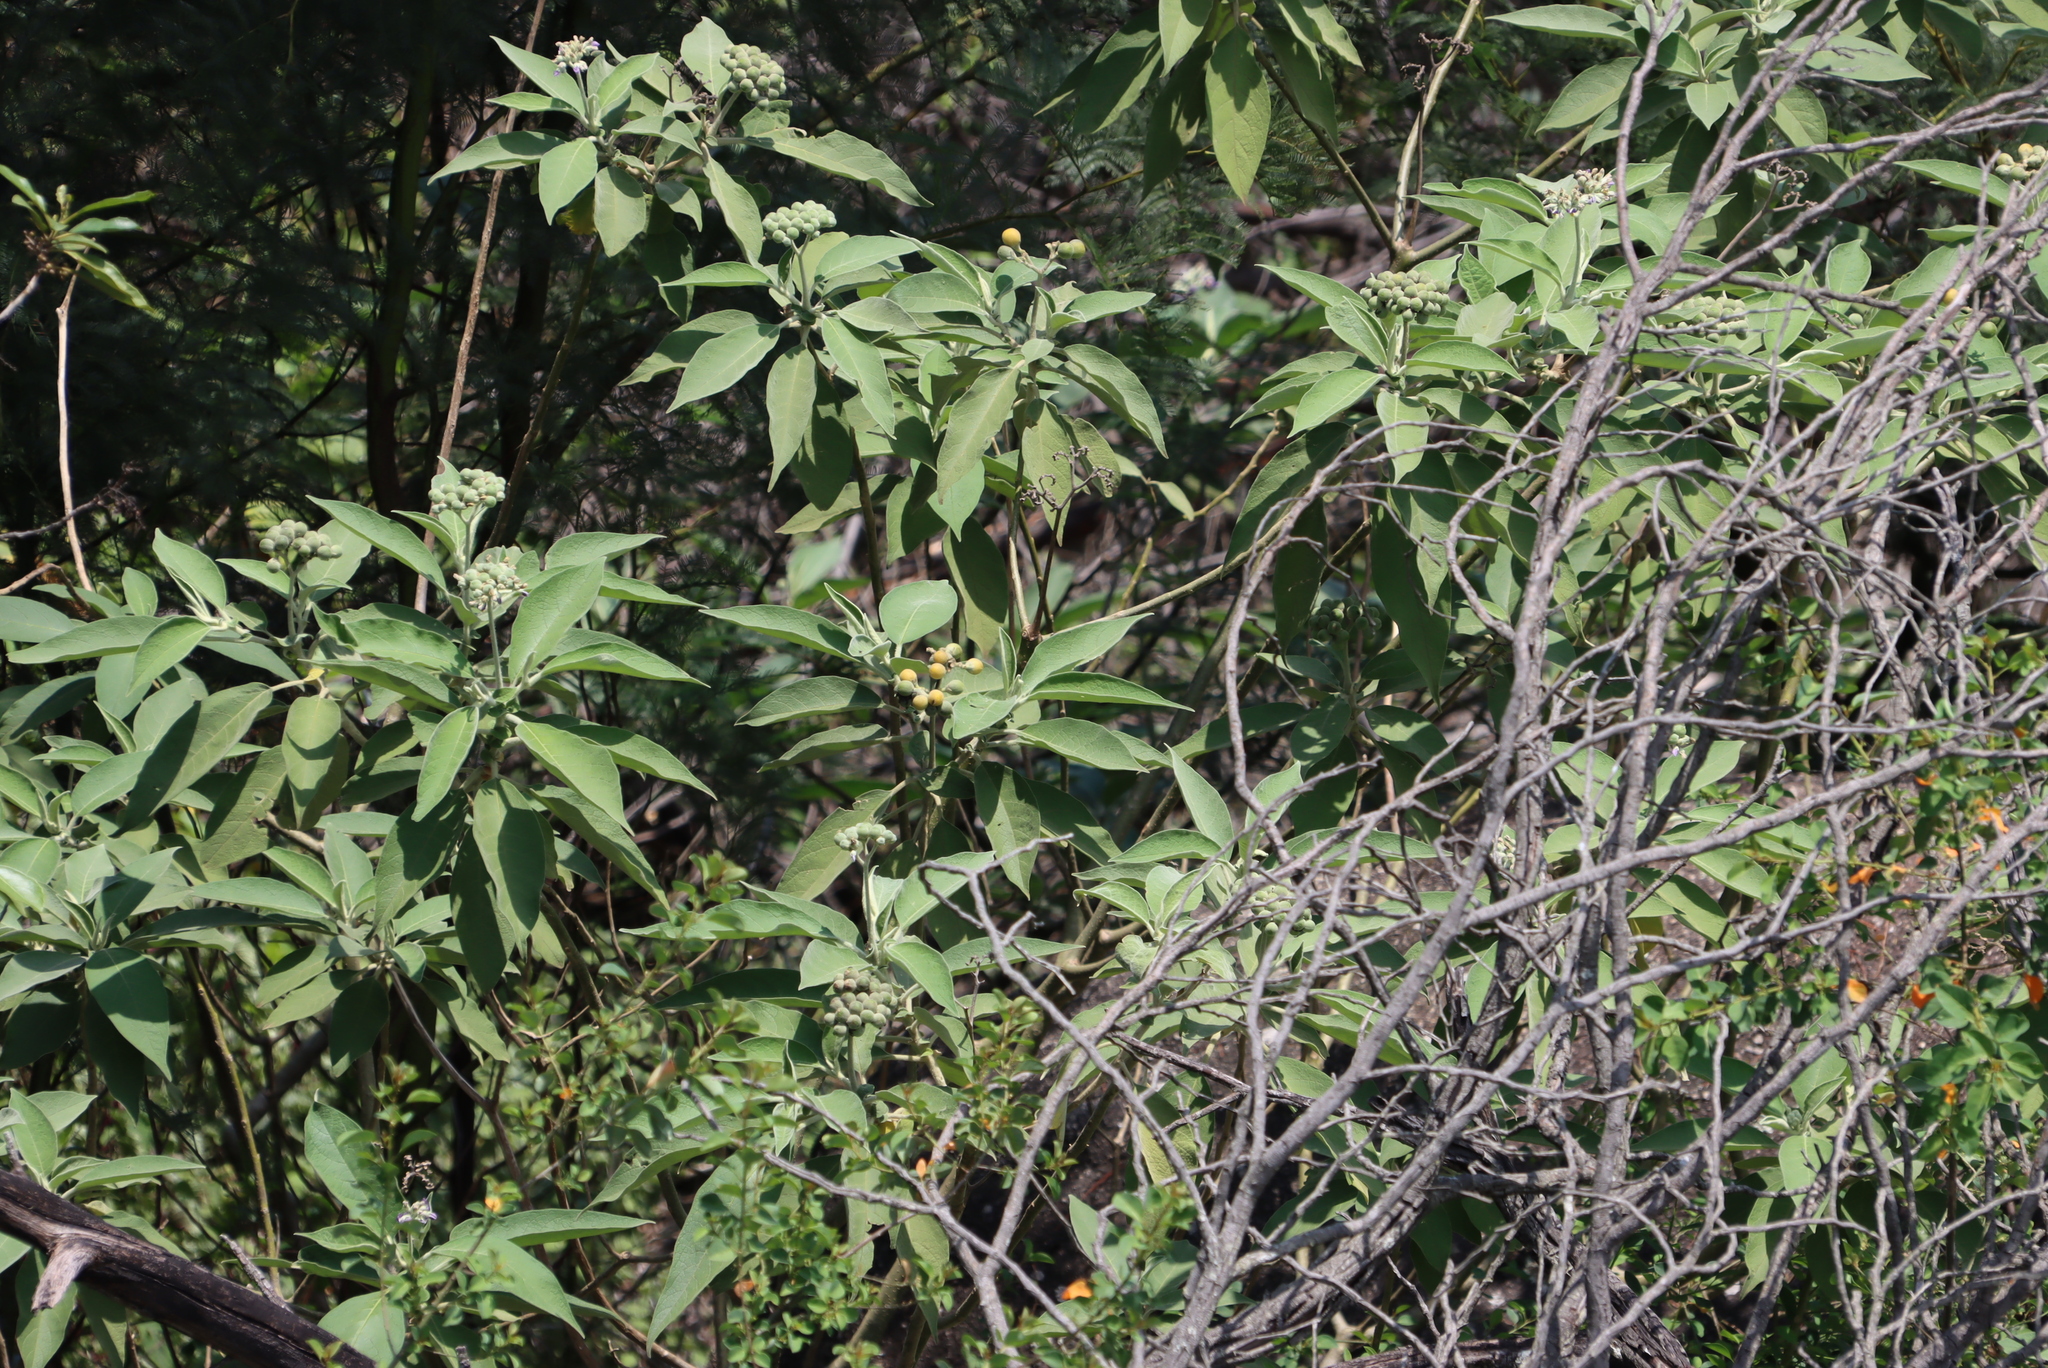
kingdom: Plantae
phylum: Tracheophyta
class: Magnoliopsida
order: Solanales
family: Solanaceae
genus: Solanum
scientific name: Solanum mauritianum
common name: Earleaf nightshade
